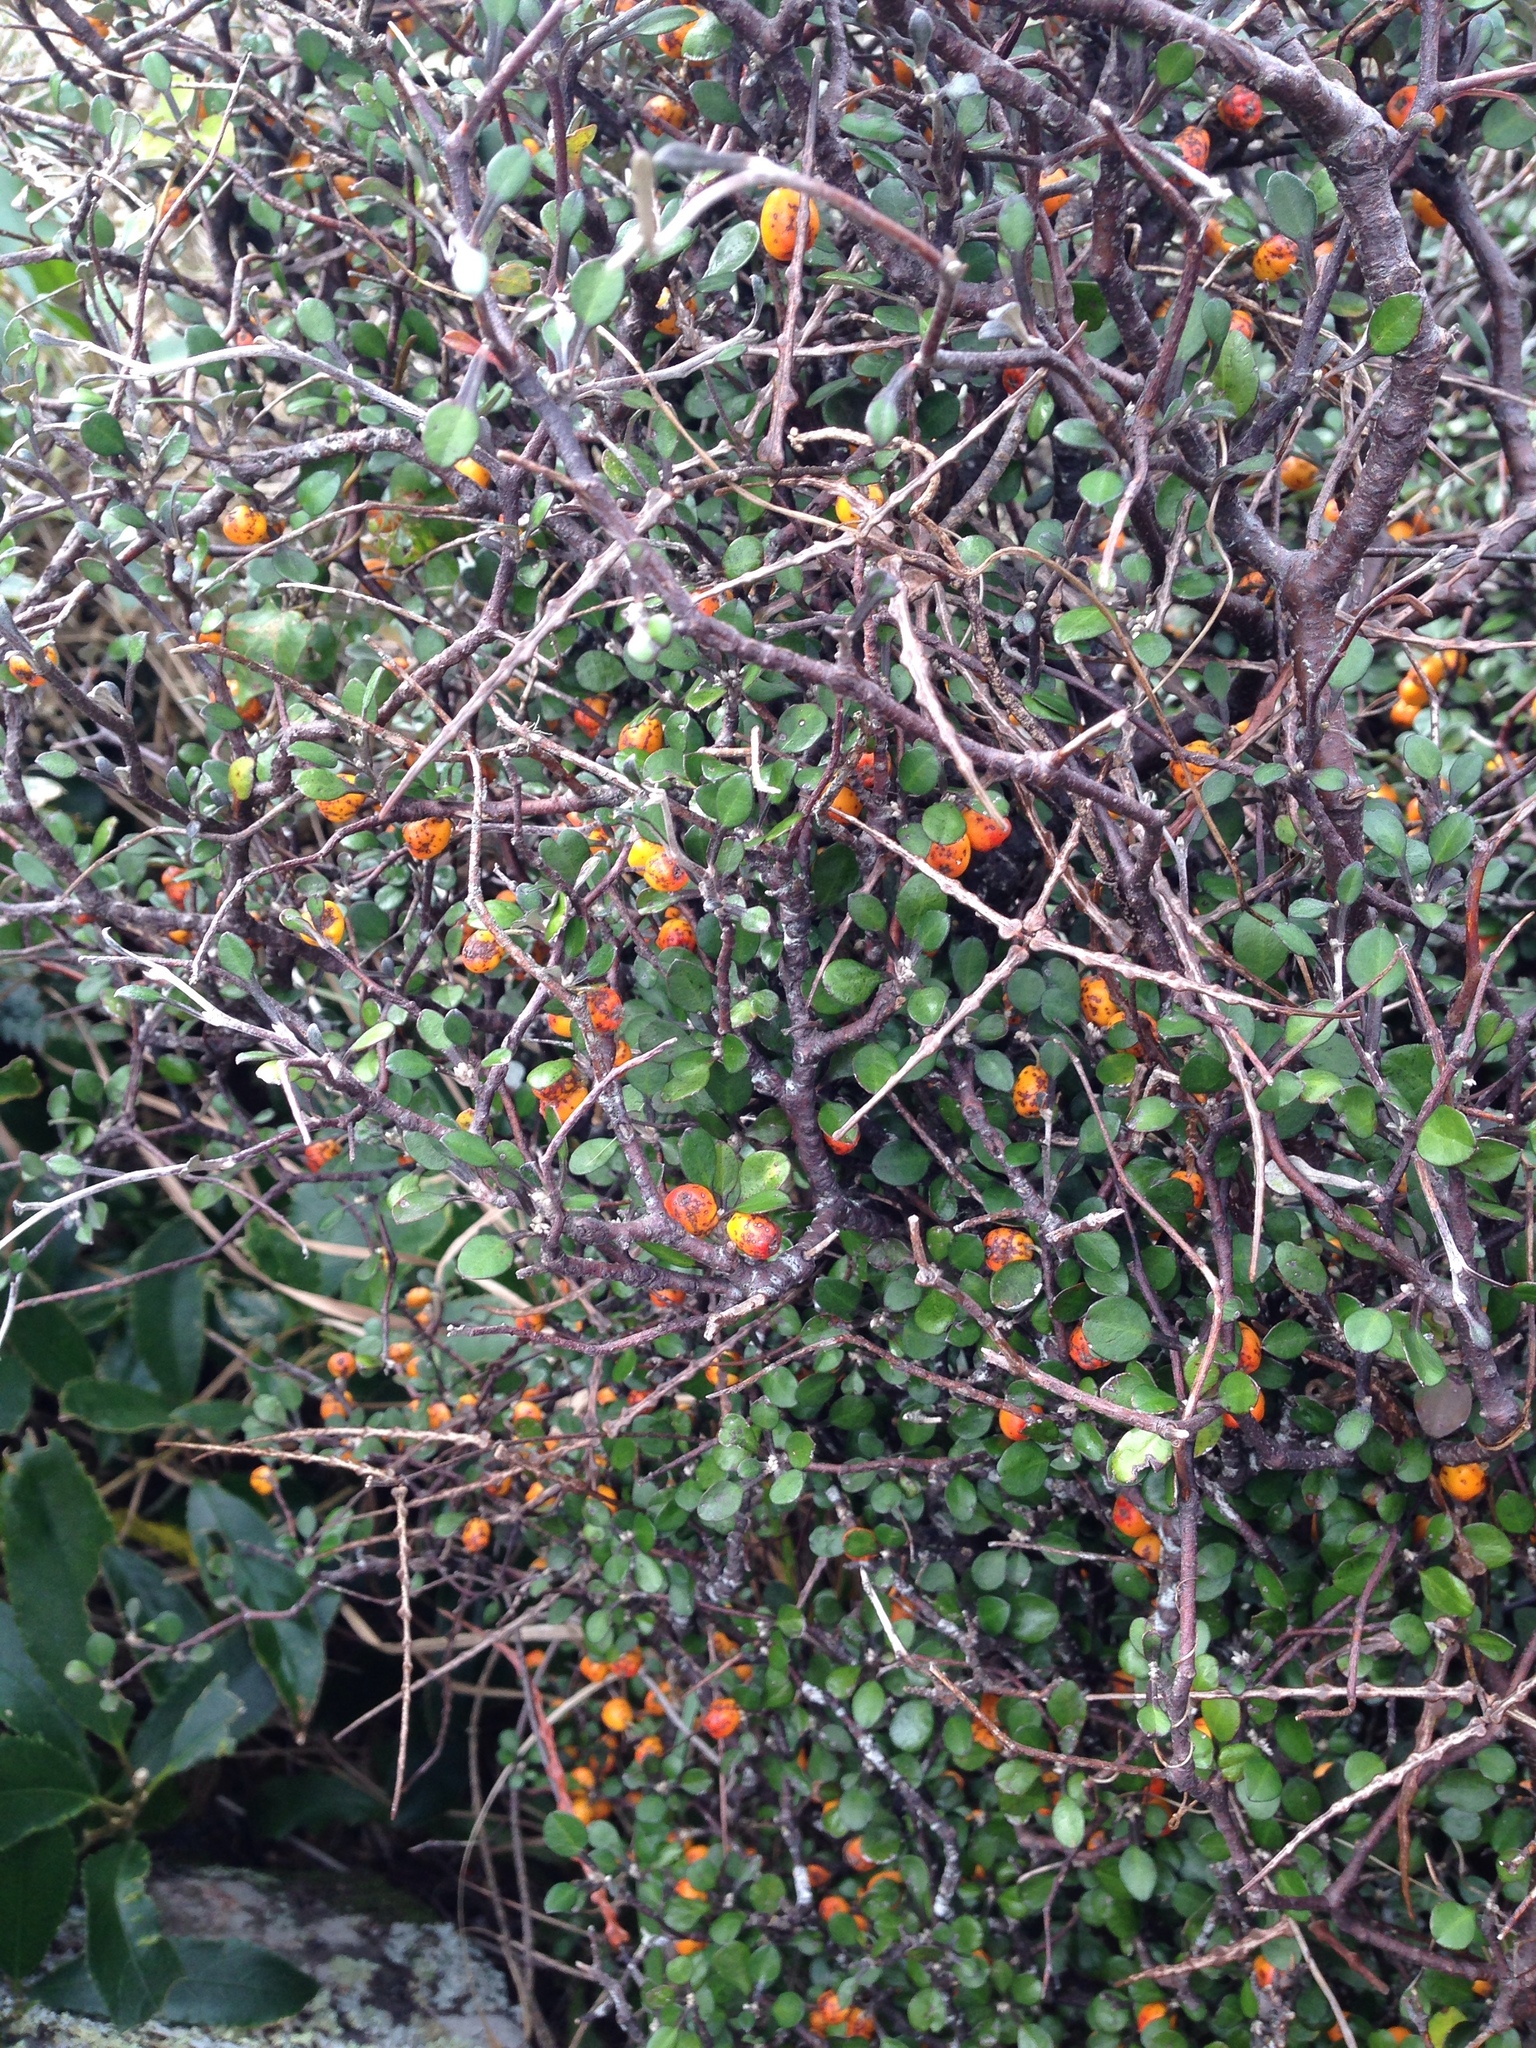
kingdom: Plantae
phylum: Tracheophyta
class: Magnoliopsida
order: Asterales
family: Argophyllaceae
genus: Corokia
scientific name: Corokia cotoneaster
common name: Wire nettingbush
